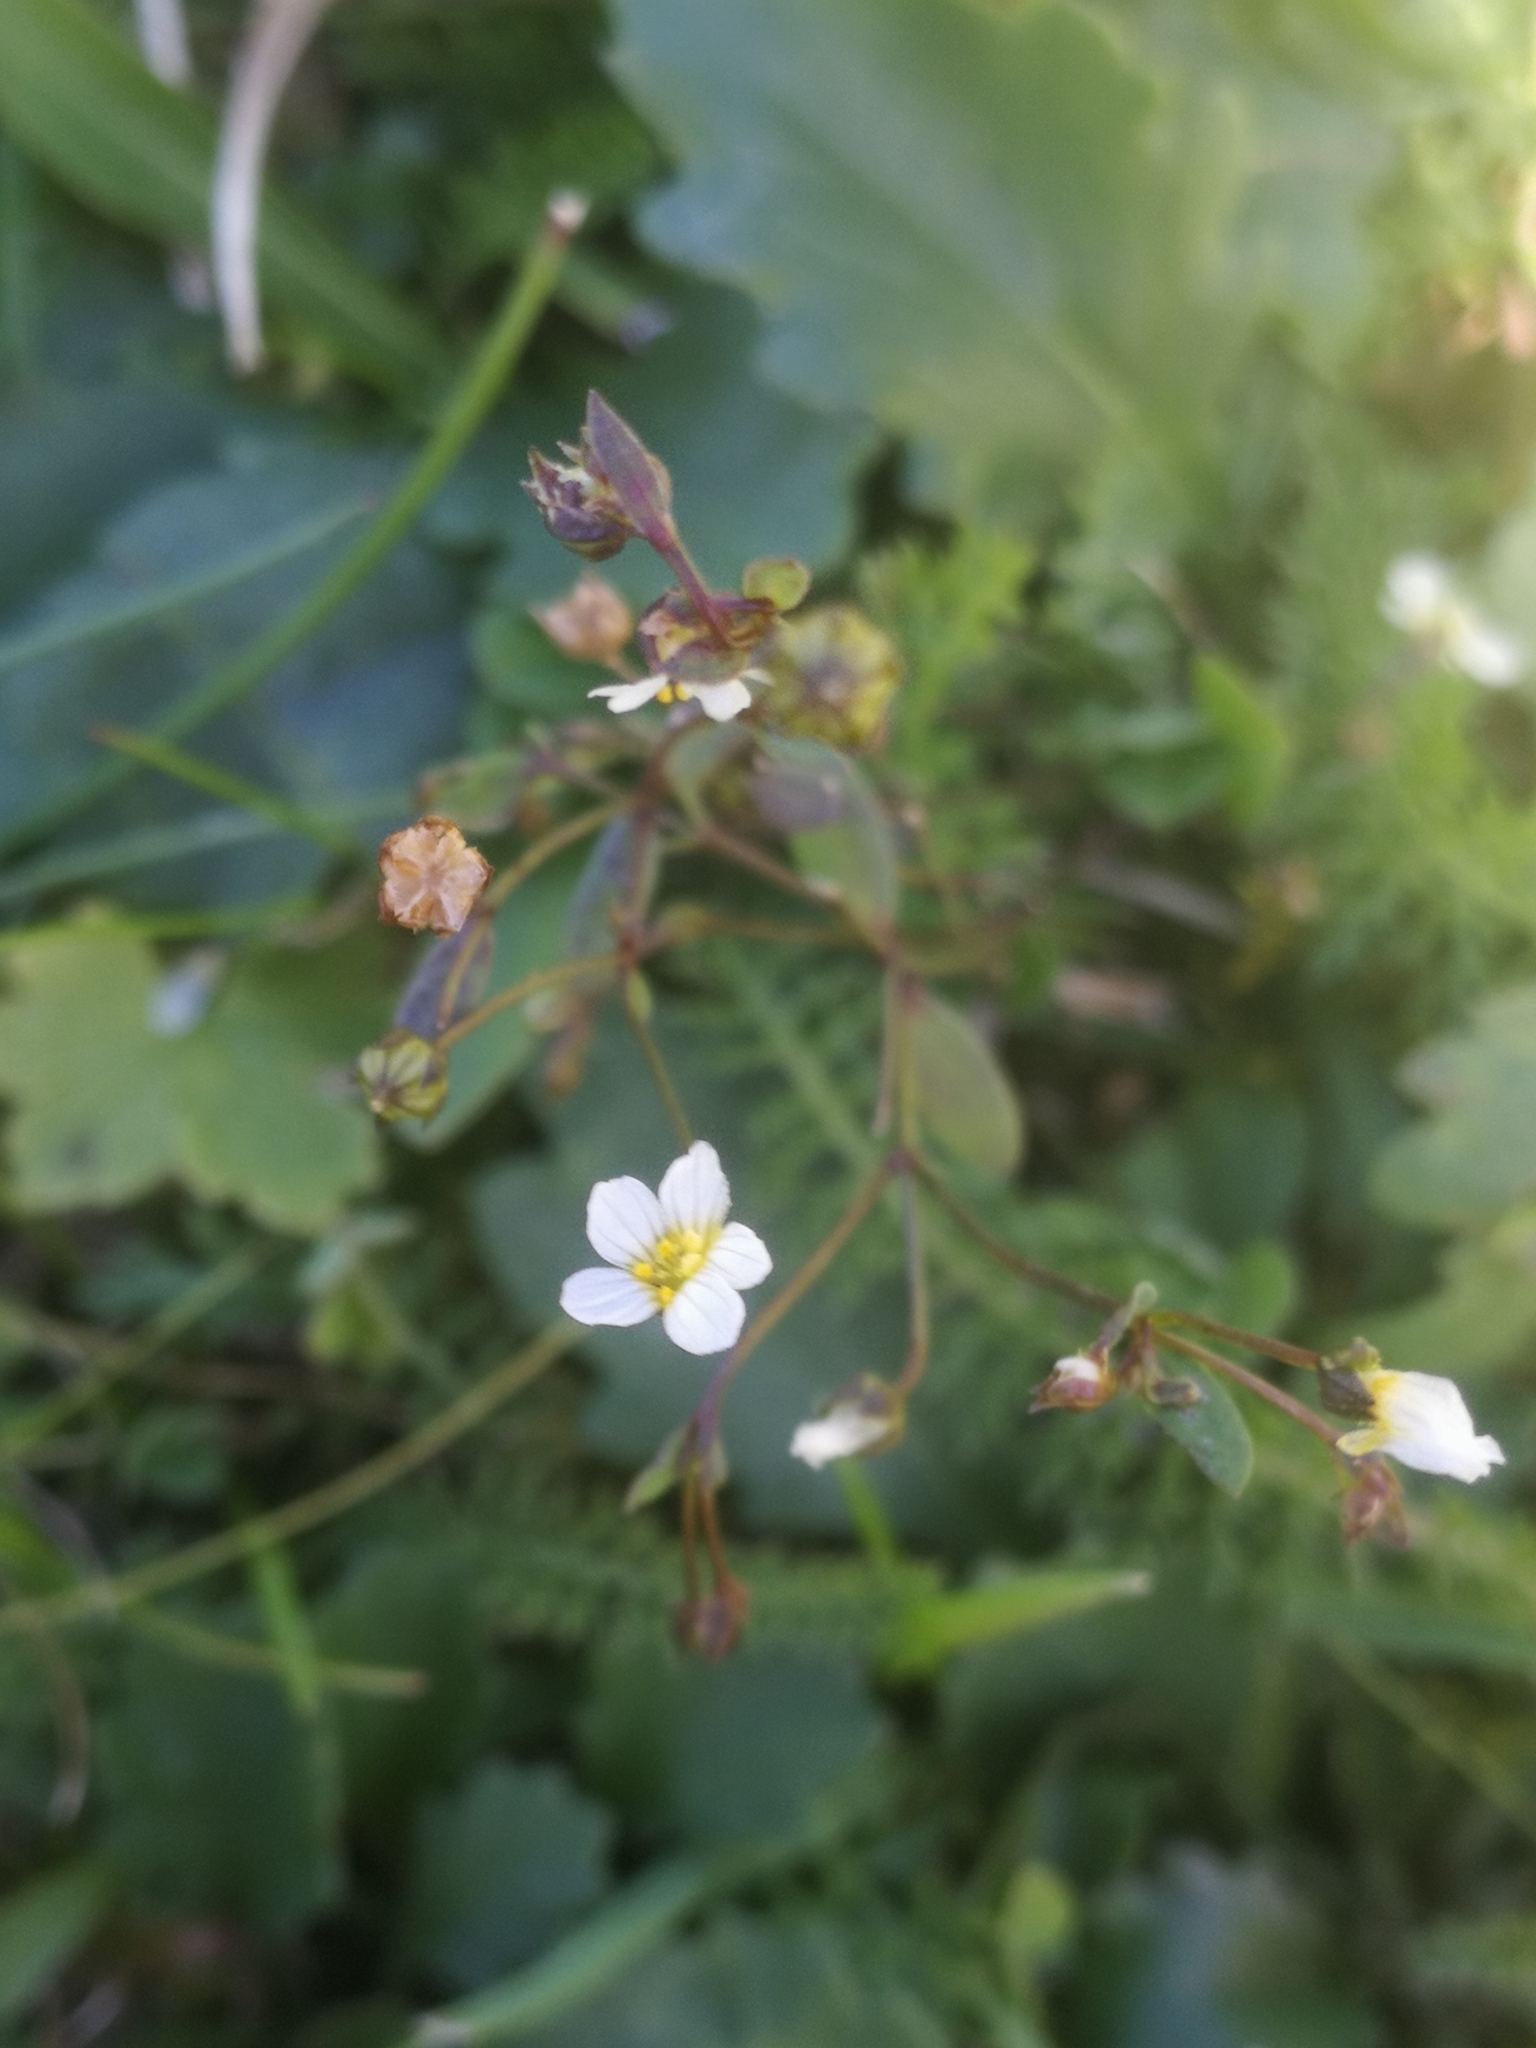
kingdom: Plantae
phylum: Tracheophyta
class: Magnoliopsida
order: Malpighiales
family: Linaceae
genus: Linum
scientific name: Linum catharticum
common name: Fairy flax
